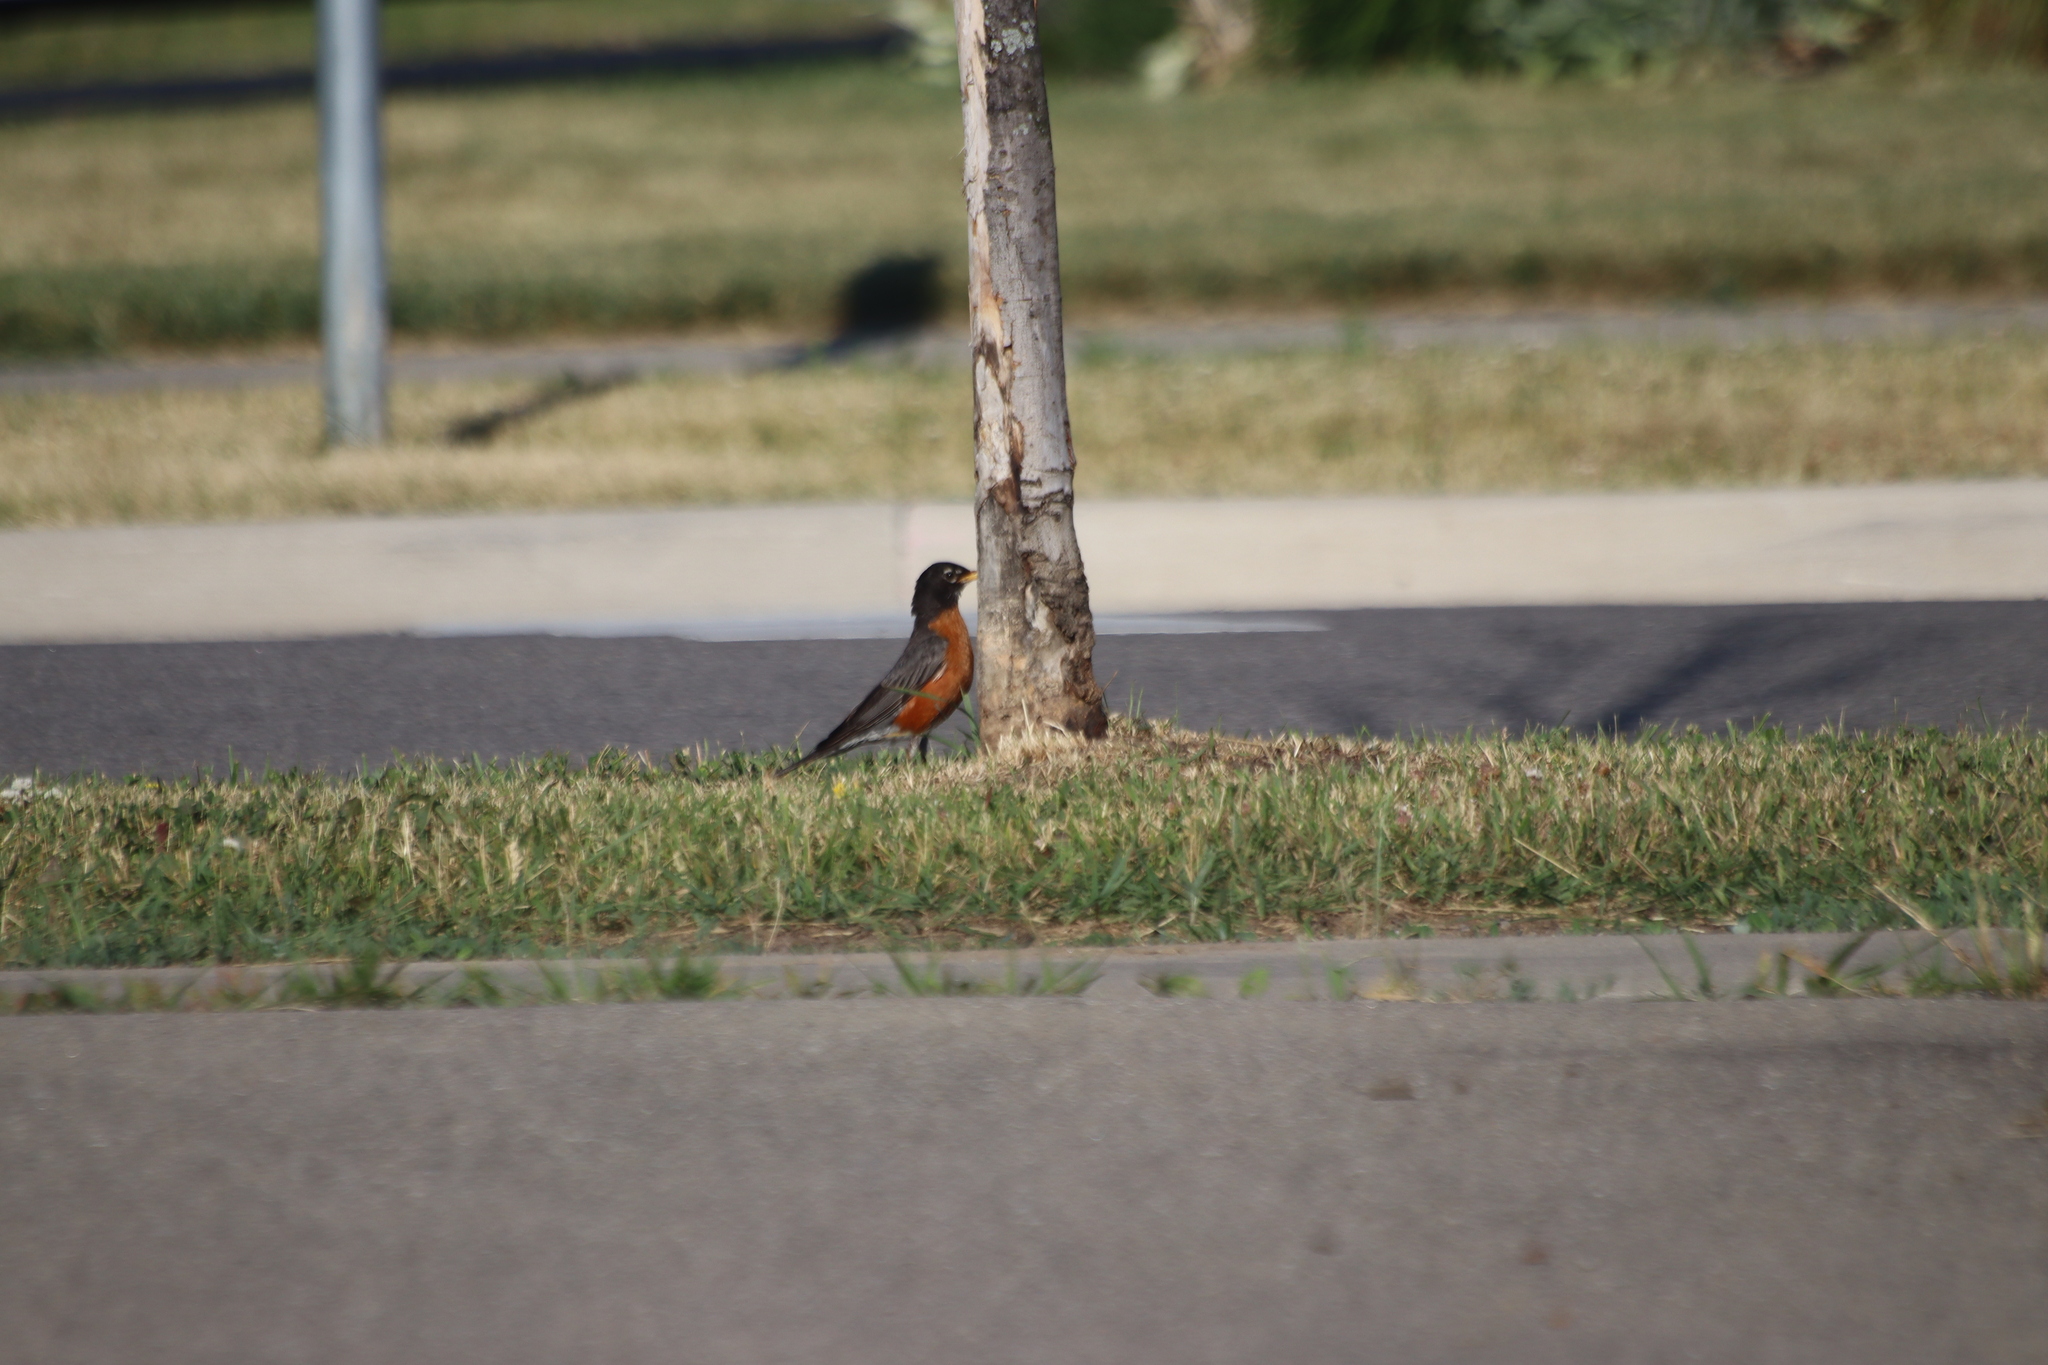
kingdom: Animalia
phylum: Chordata
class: Aves
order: Passeriformes
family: Turdidae
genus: Turdus
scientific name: Turdus migratorius
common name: American robin
